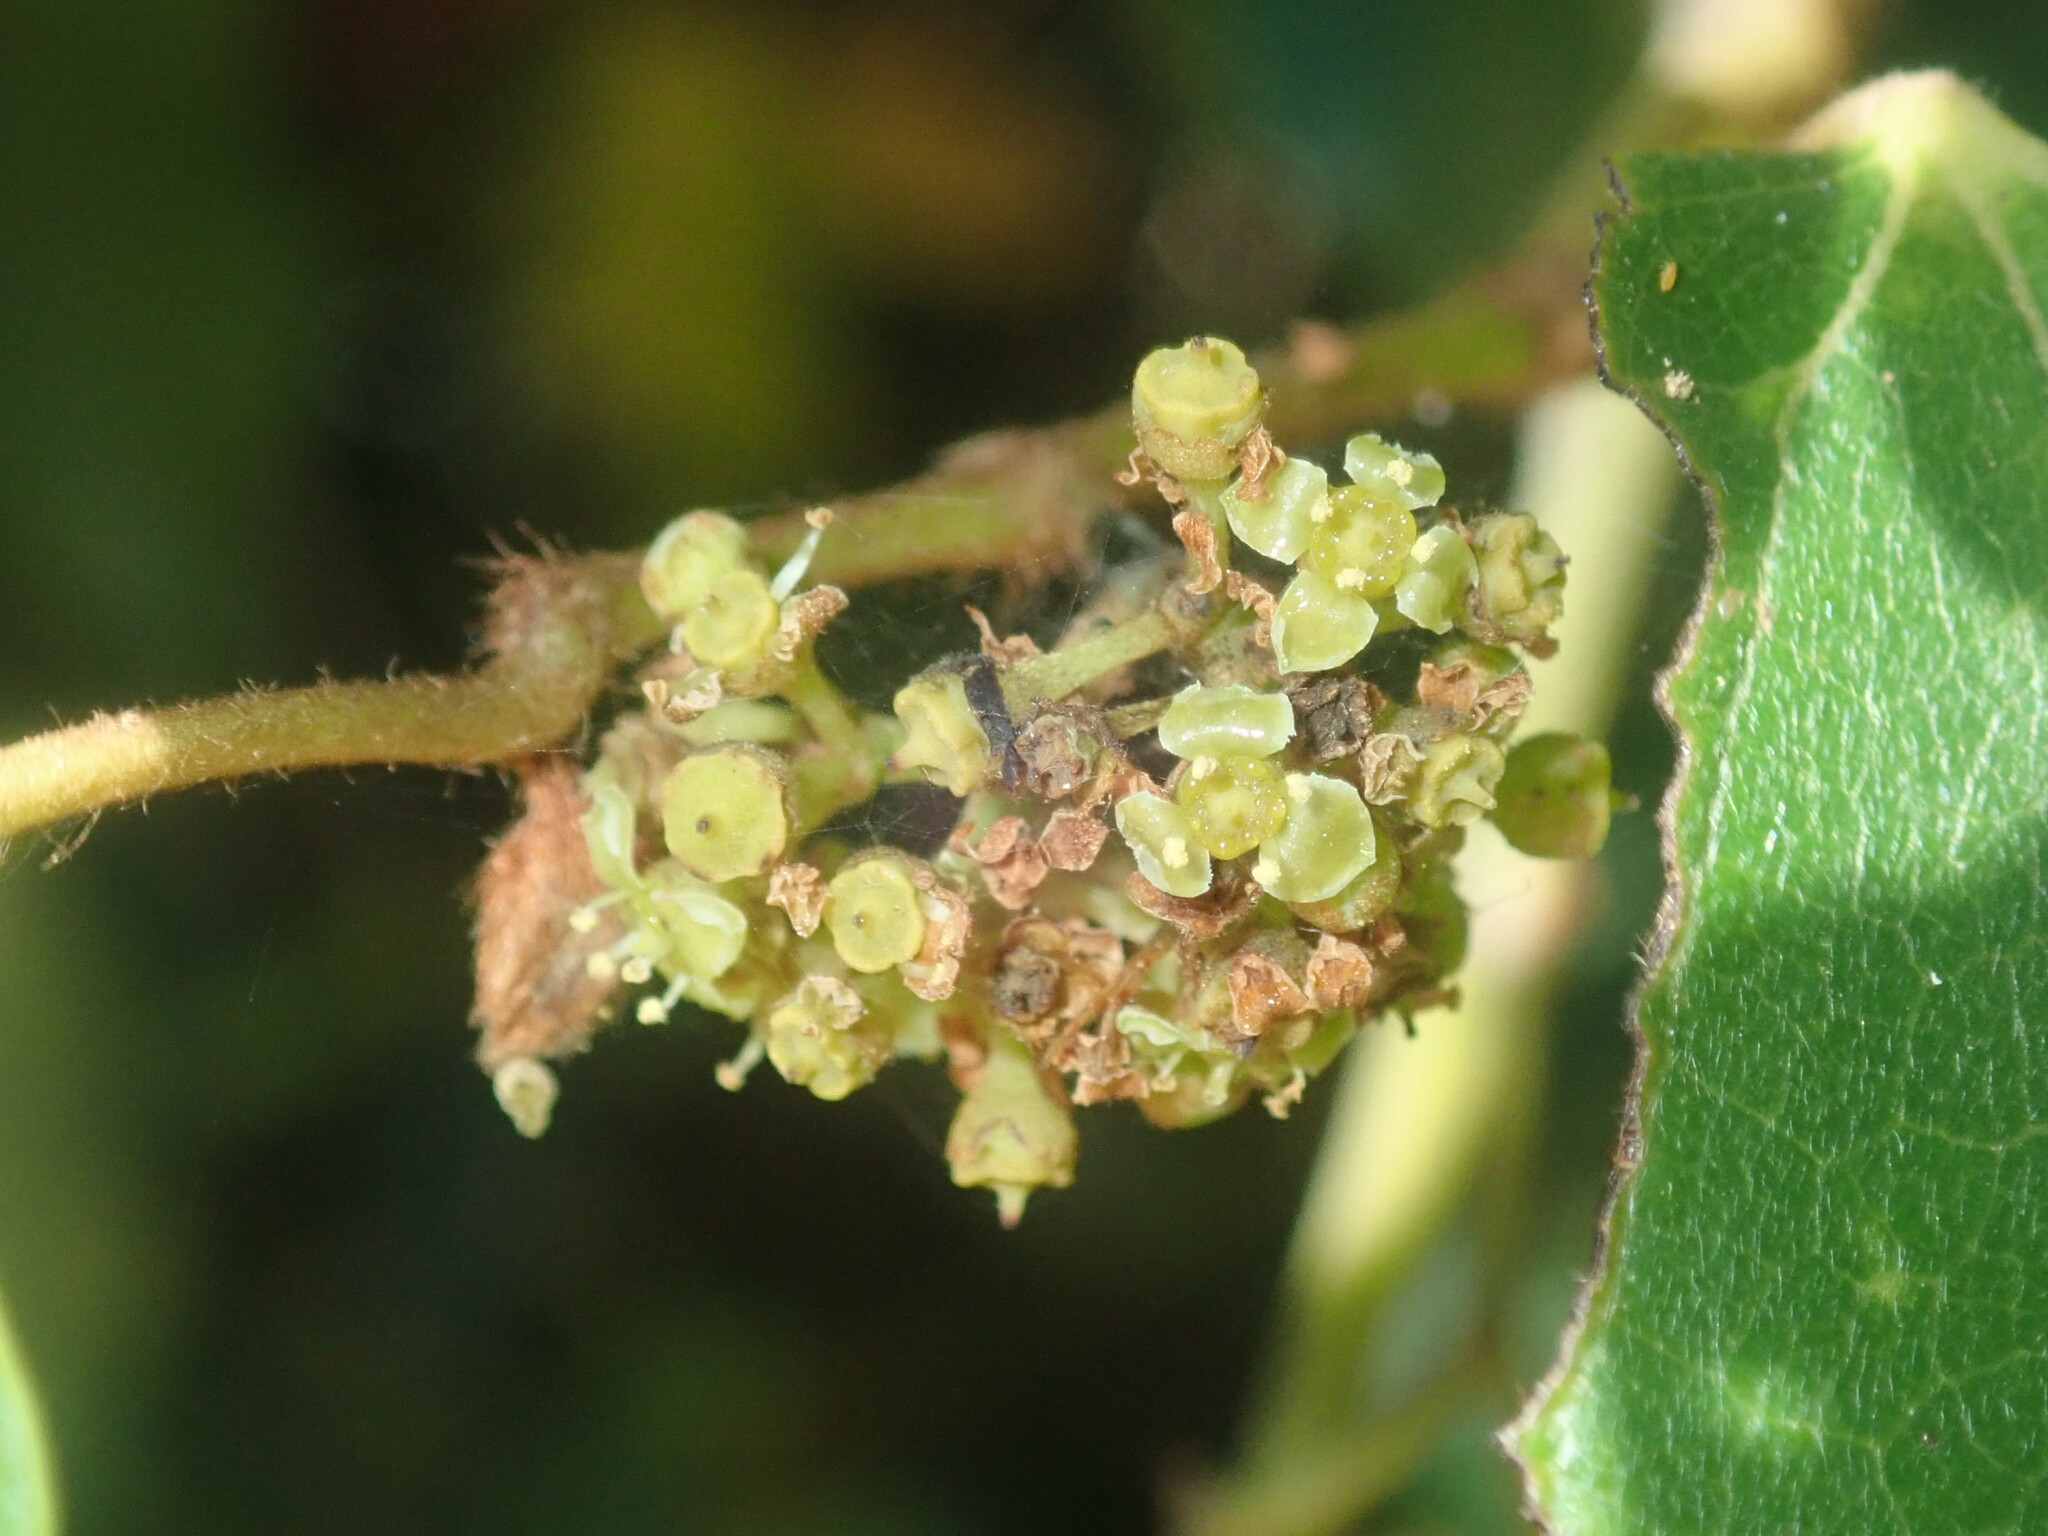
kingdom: Plantae
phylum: Tracheophyta
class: Magnoliopsida
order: Vitales
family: Vitaceae
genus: Cissus
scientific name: Cissus antarctica
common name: Kangaroo vine
